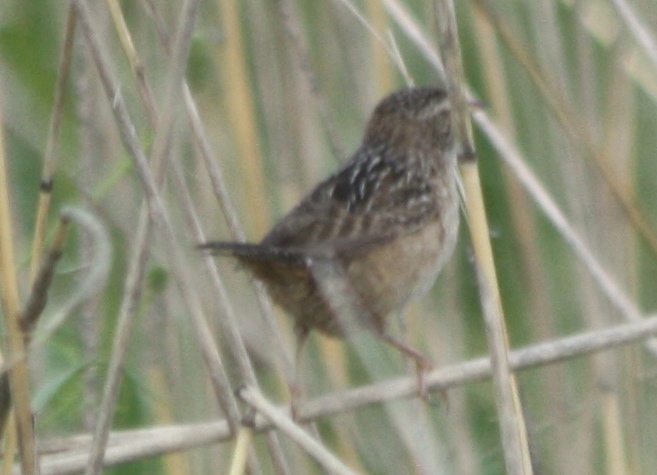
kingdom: Animalia
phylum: Chordata
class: Aves
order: Passeriformes
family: Troglodytidae
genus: Cistothorus
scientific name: Cistothorus platensis
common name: Sedge wren
